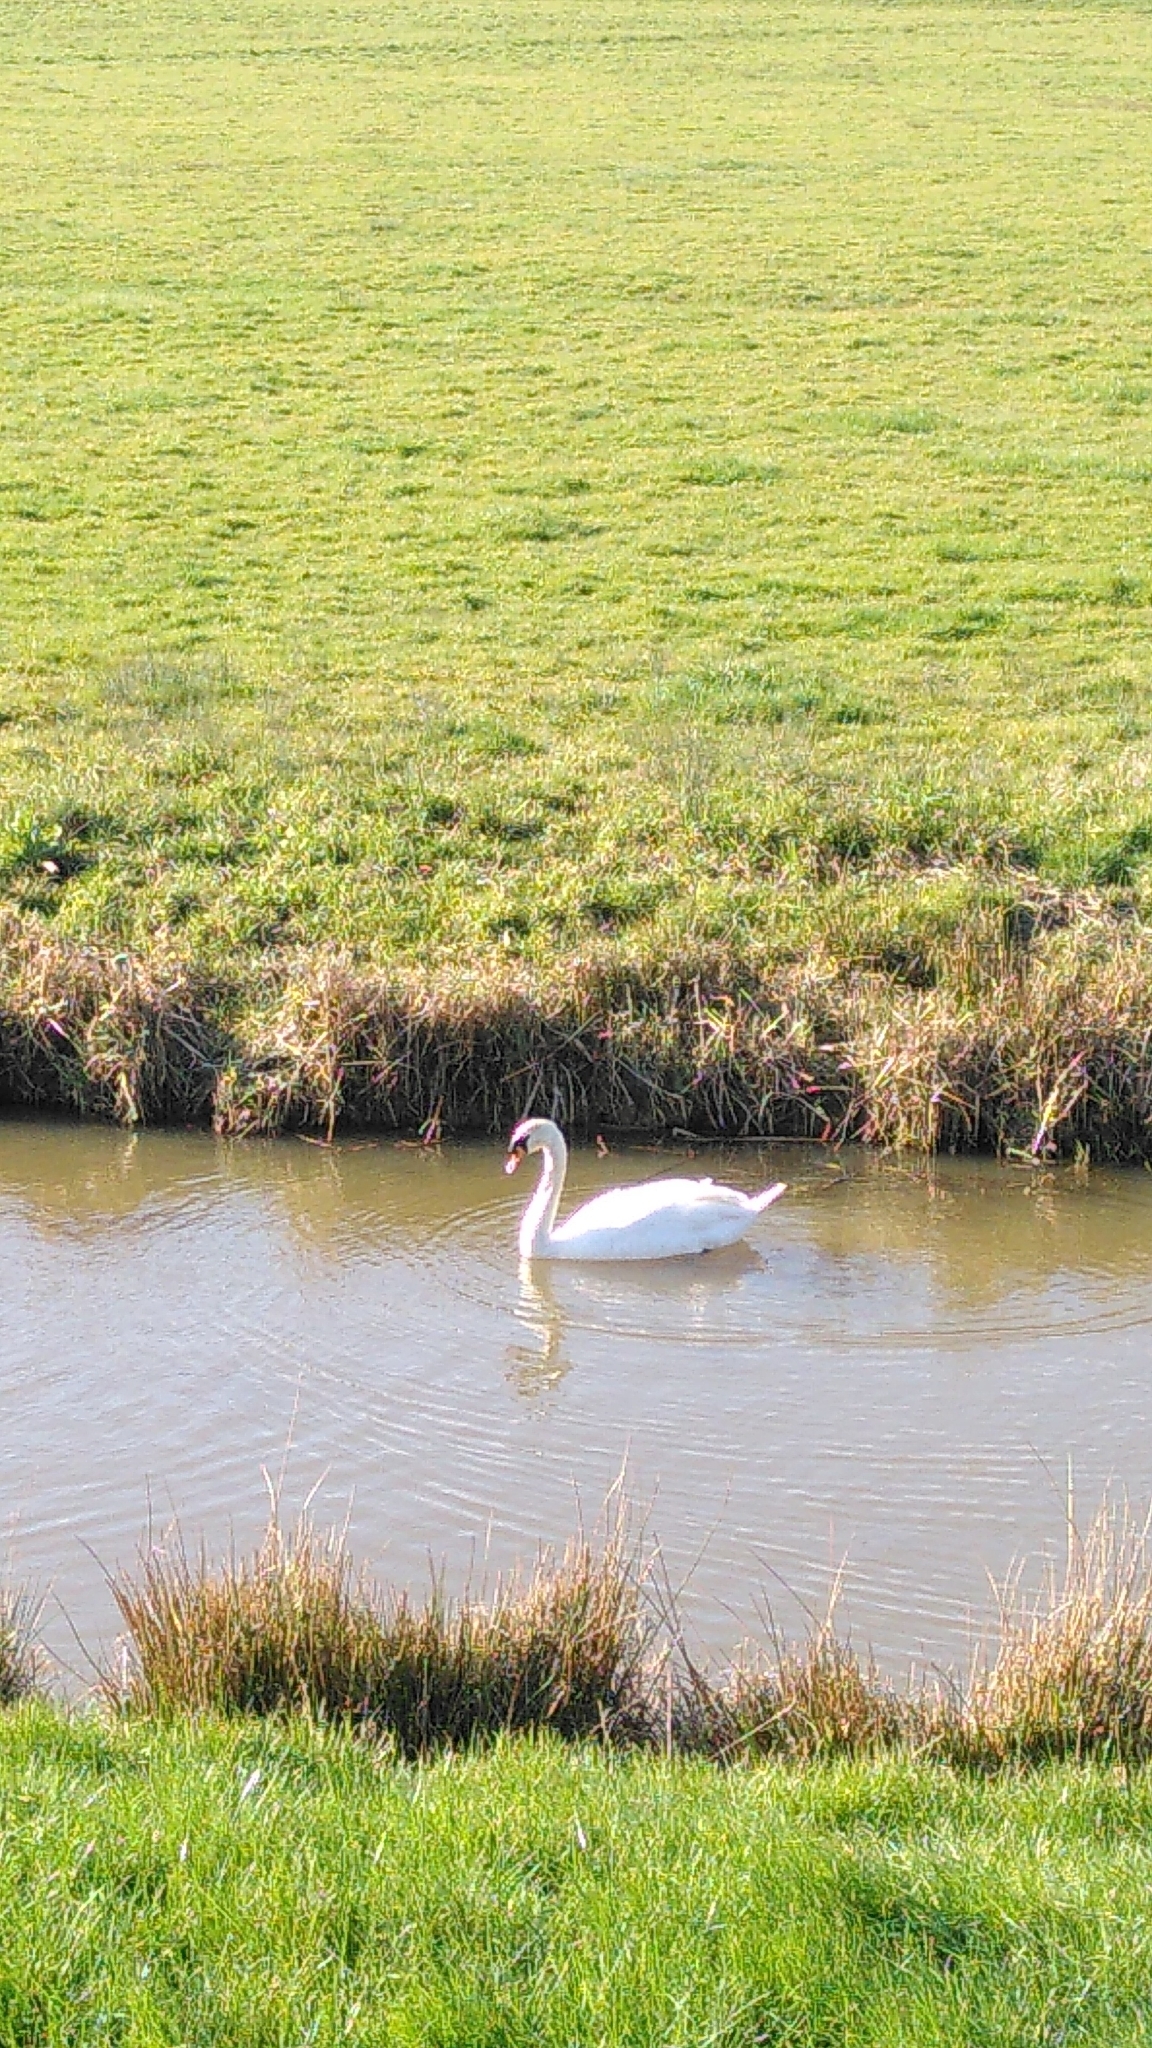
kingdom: Animalia
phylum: Chordata
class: Aves
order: Anseriformes
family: Anatidae
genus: Cygnus
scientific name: Cygnus olor
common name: Mute swan
